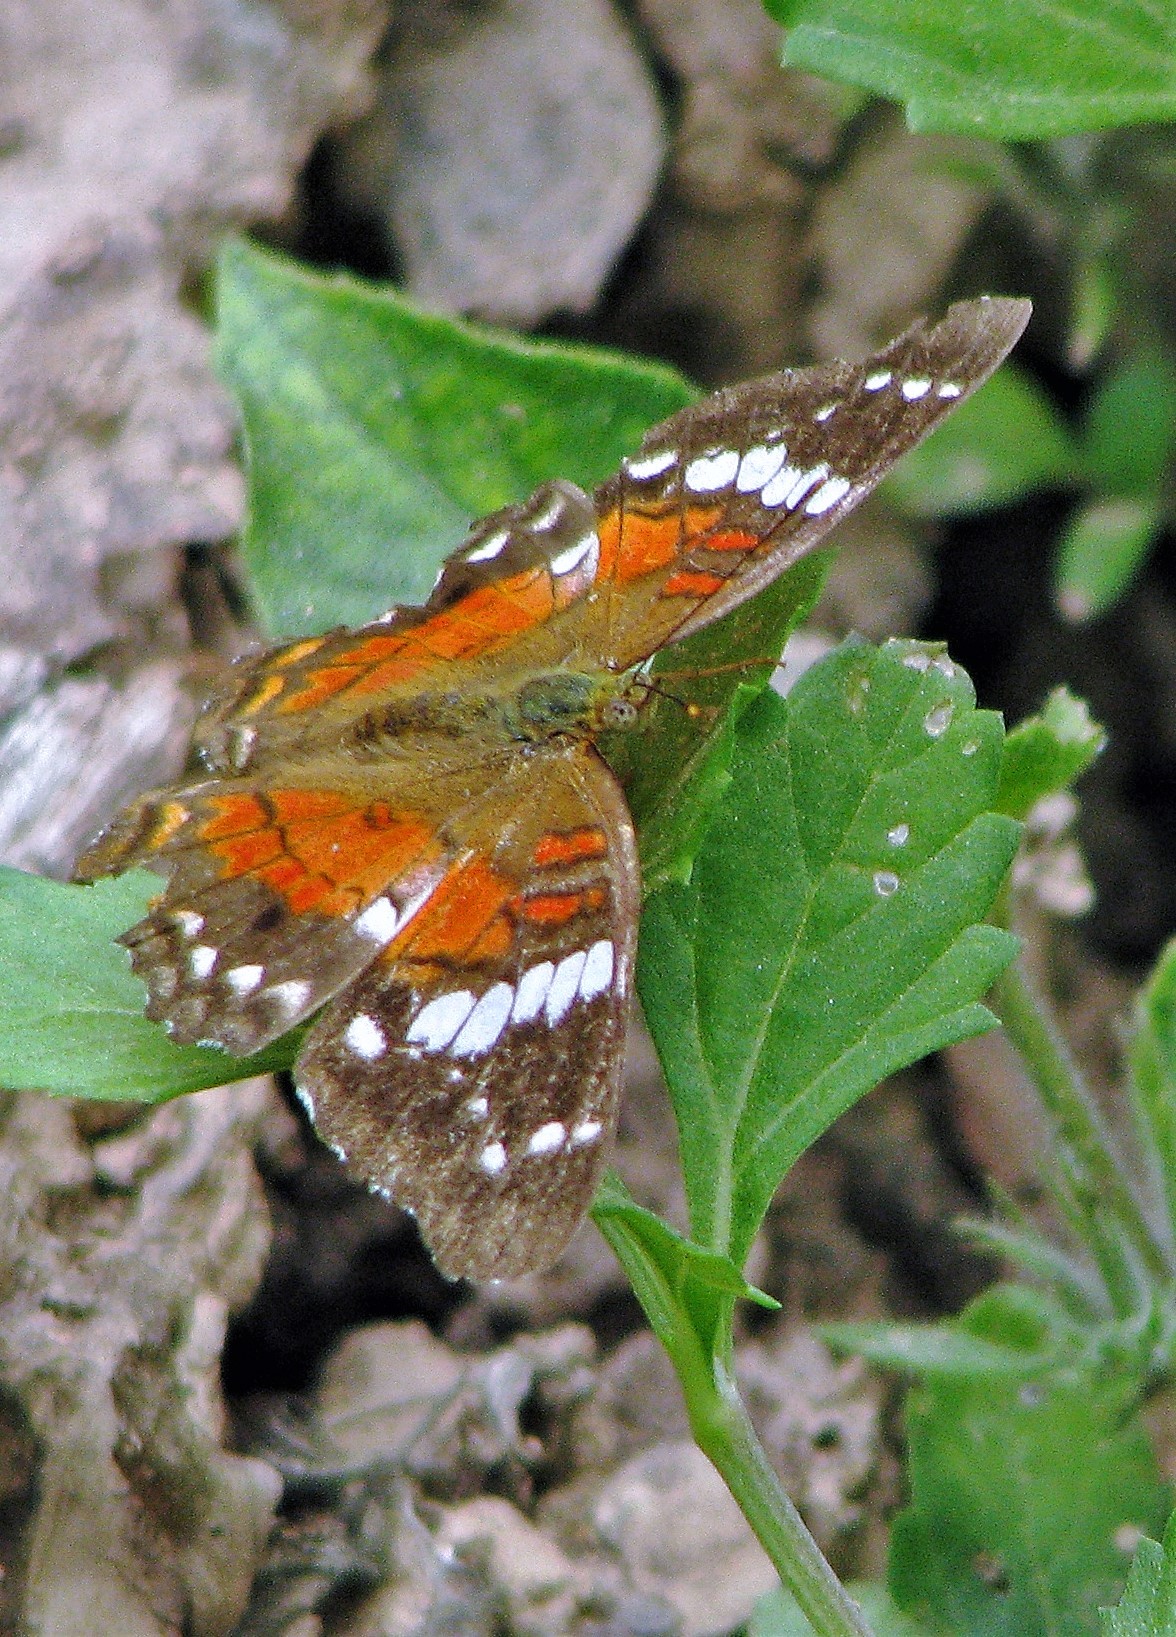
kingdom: Animalia
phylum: Arthropoda
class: Insecta
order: Lepidoptera
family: Nymphalidae
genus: Anartia
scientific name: Anartia amathea
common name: Red peacock
